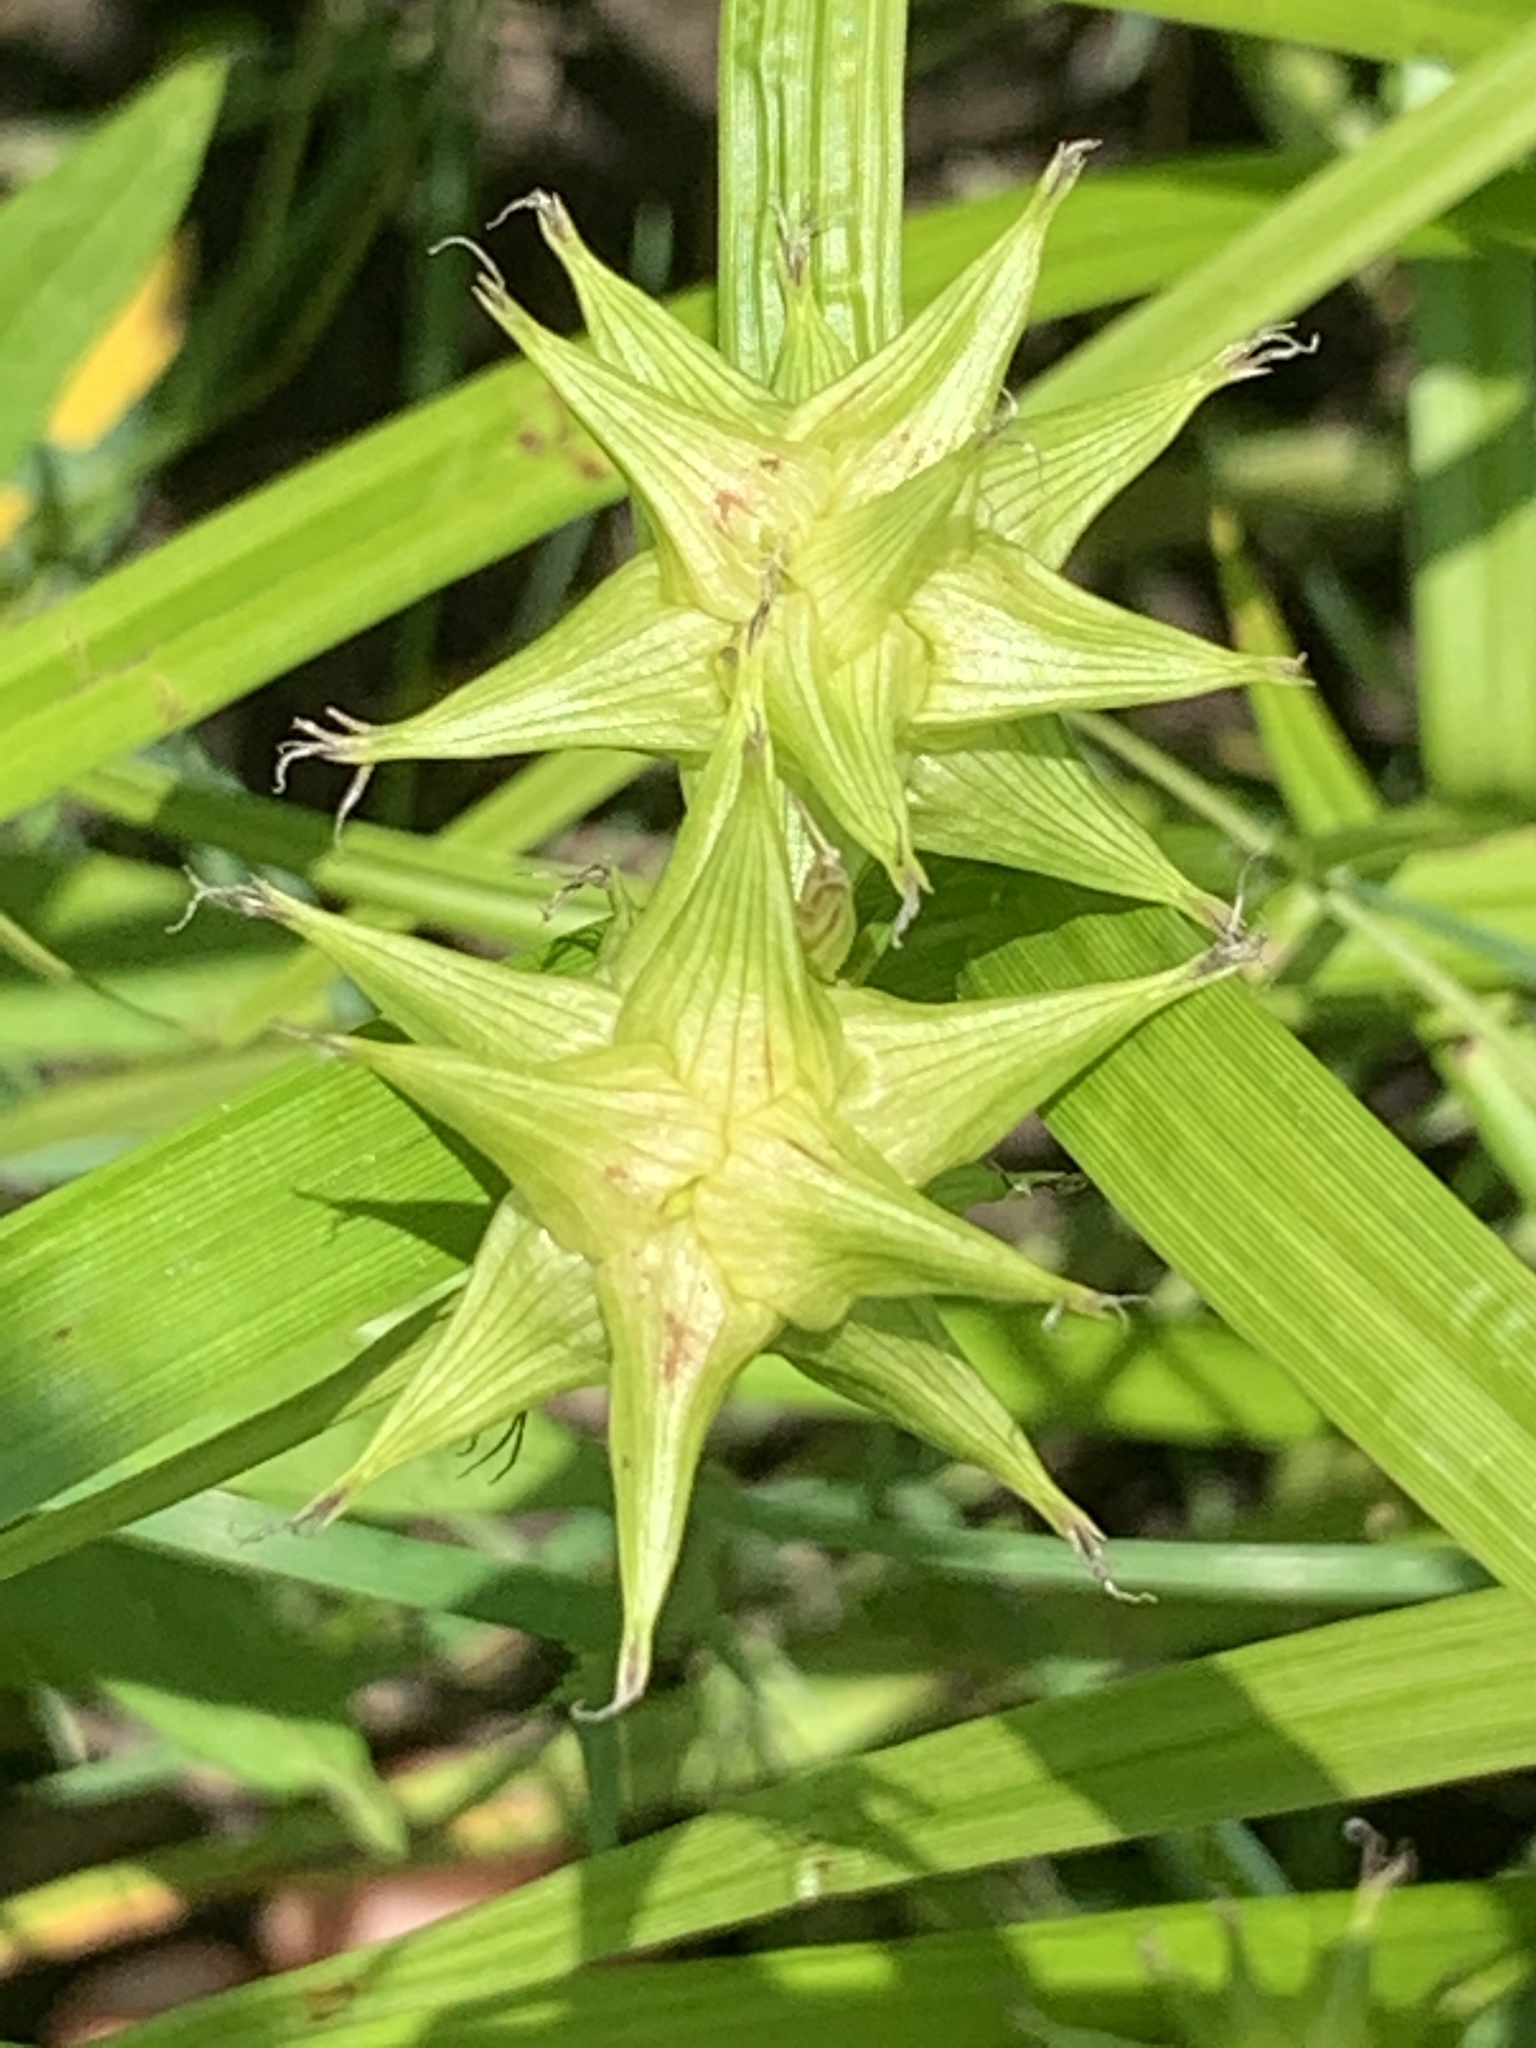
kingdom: Plantae
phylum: Tracheophyta
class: Liliopsida
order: Poales
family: Cyperaceae
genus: Carex
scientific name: Carex grayi
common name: Asa gray's sedge
